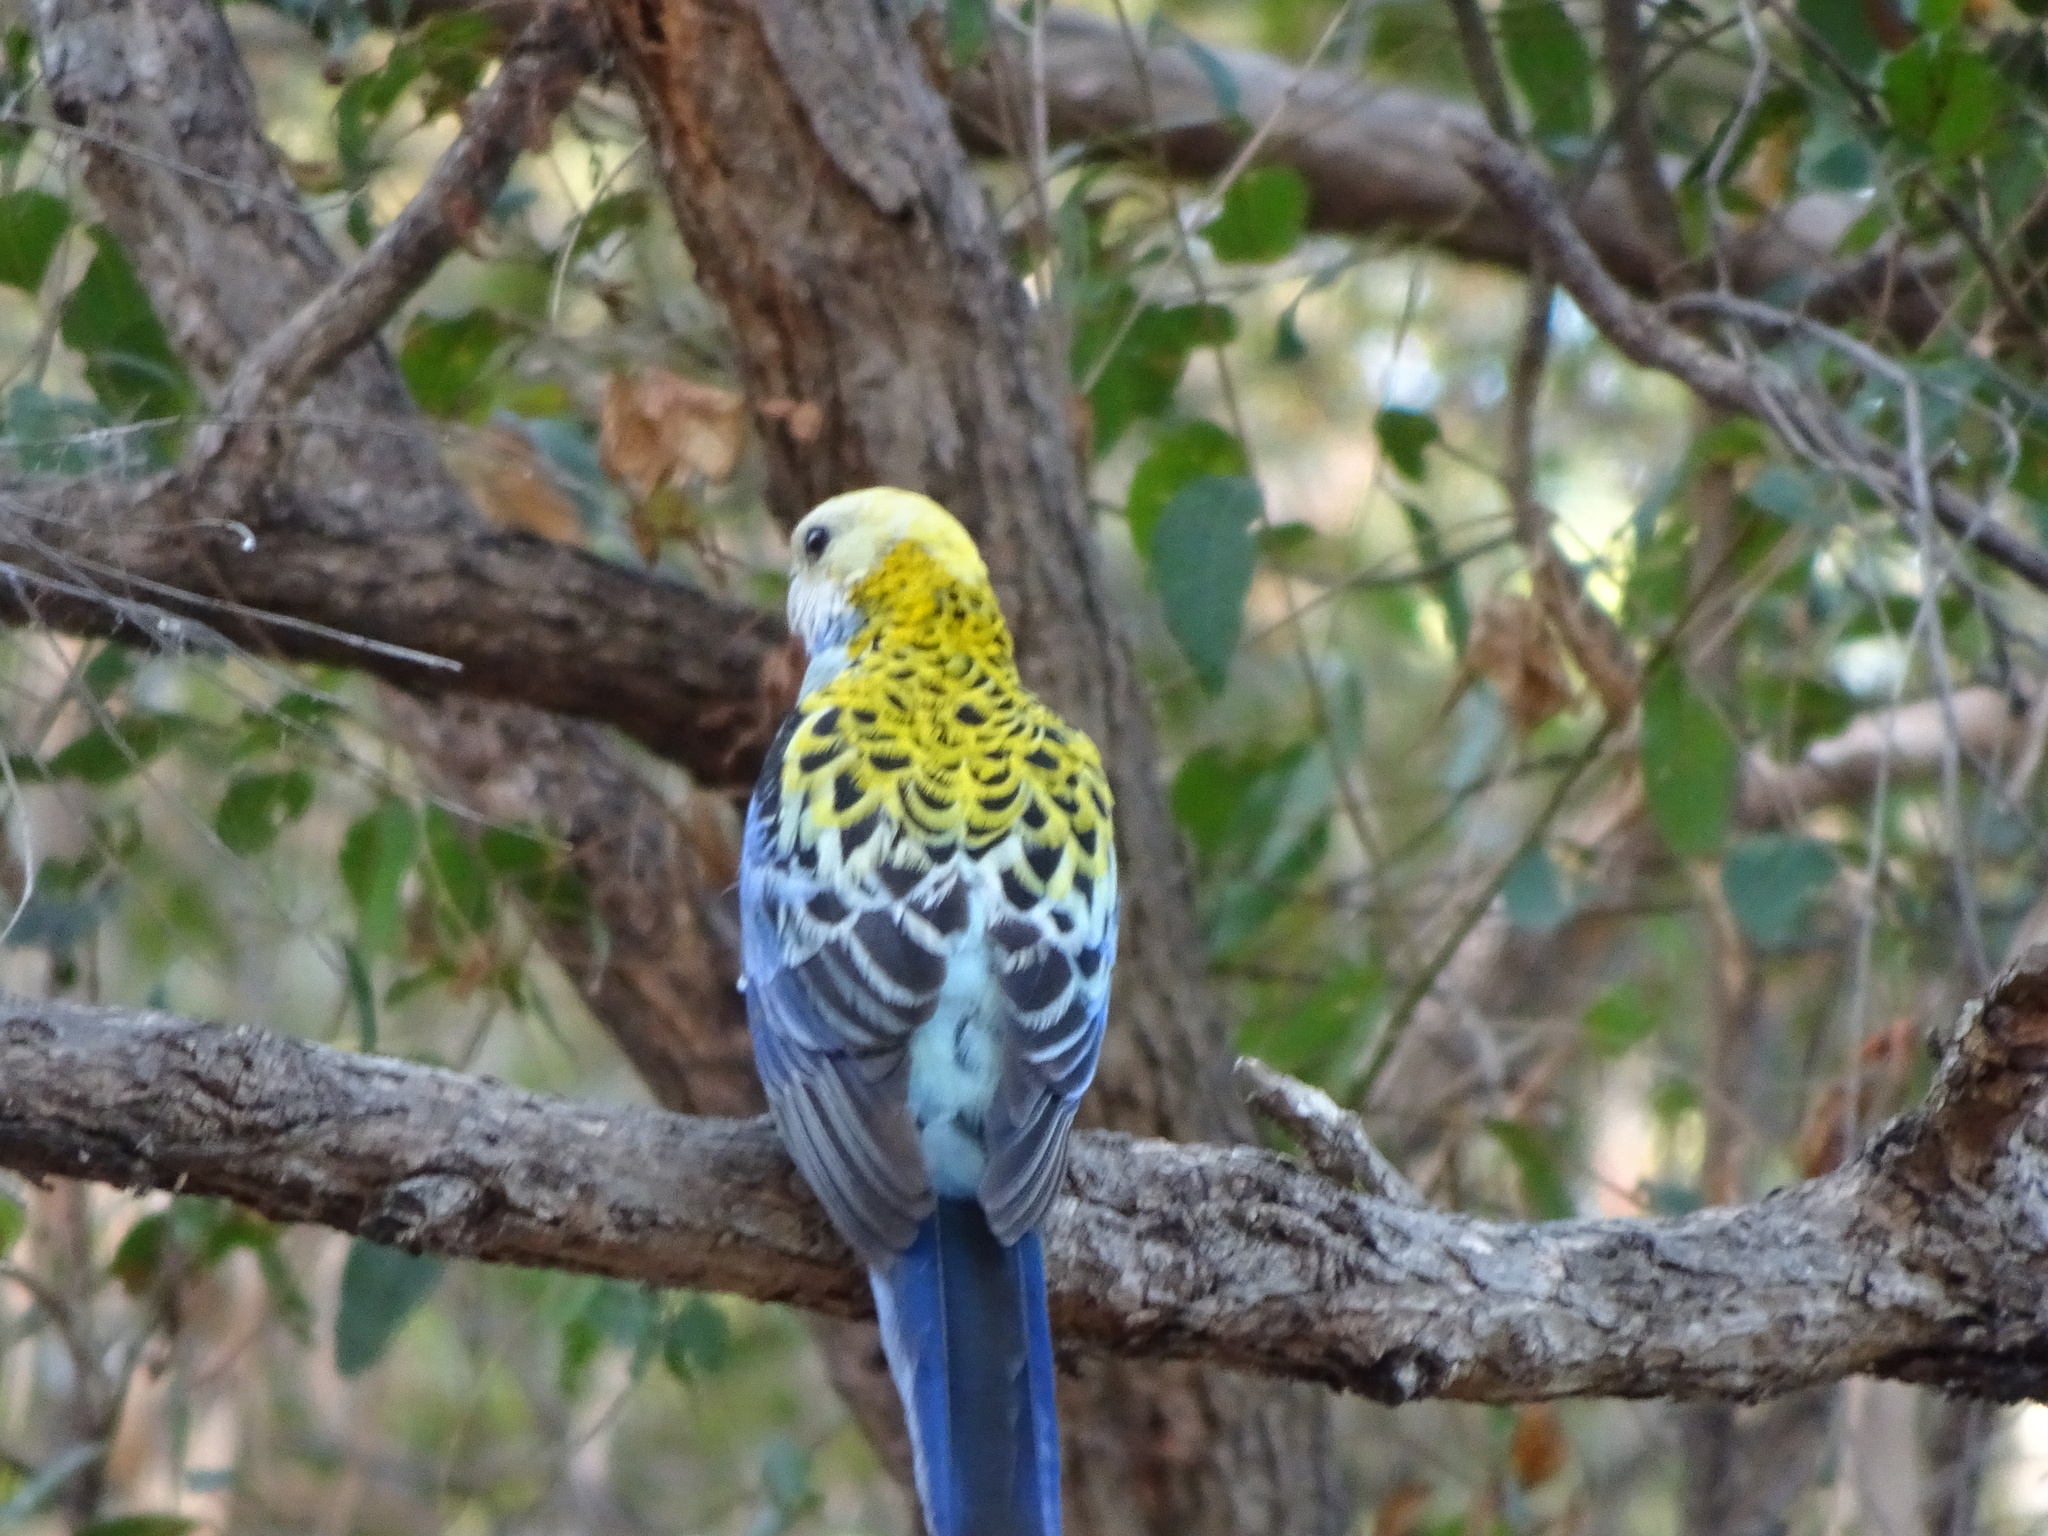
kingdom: Animalia
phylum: Chordata
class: Aves
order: Psittaciformes
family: Psittacidae
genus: Platycercus
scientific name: Platycercus adscitus
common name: Pale-headed rosella
